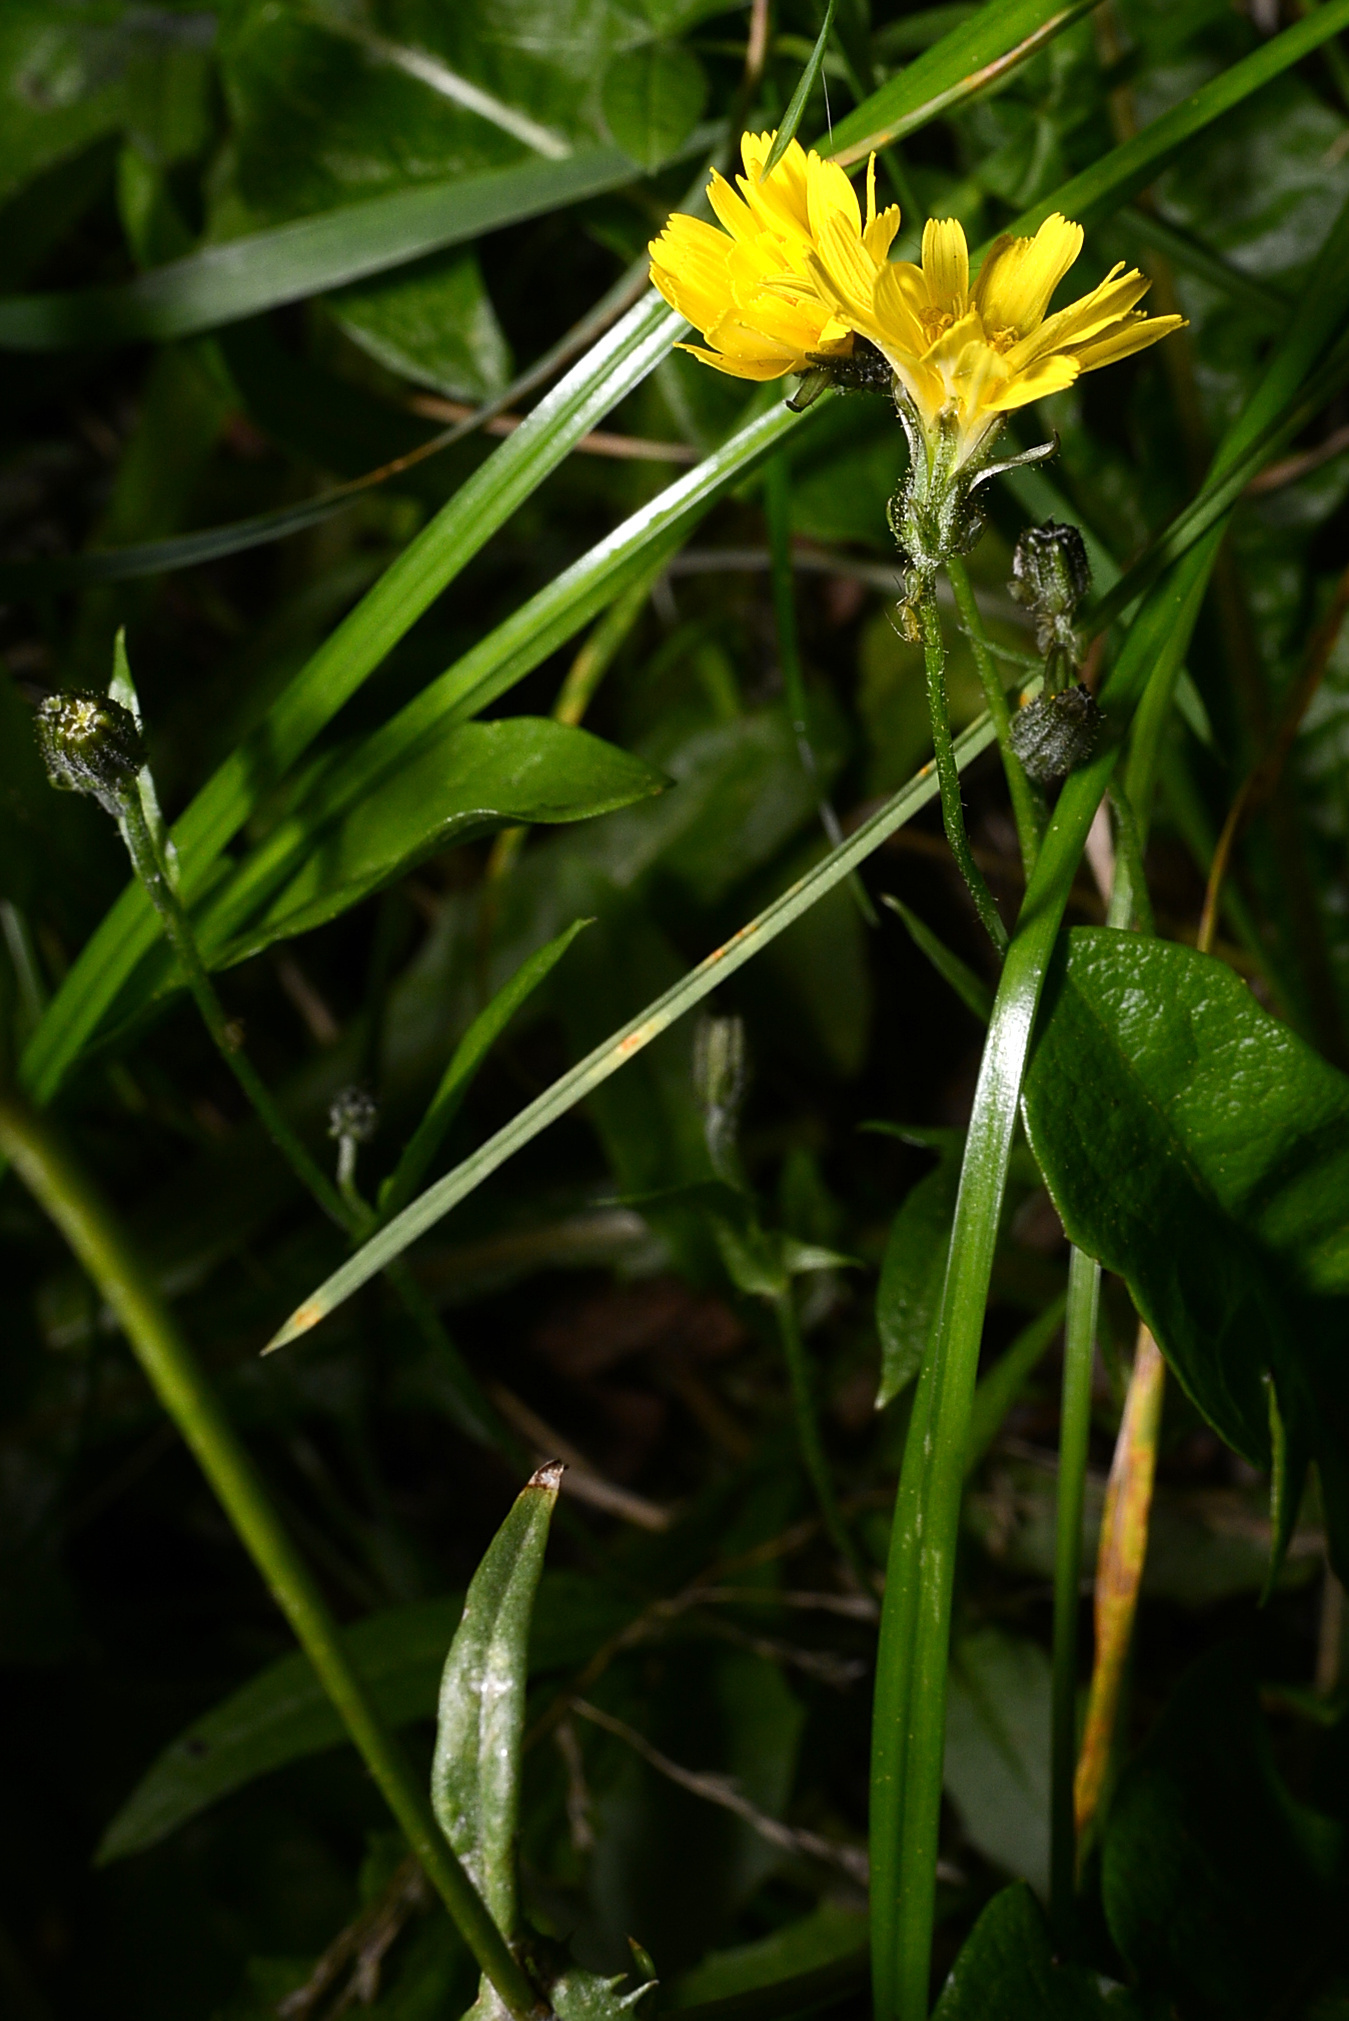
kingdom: Plantae
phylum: Tracheophyta
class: Magnoliopsida
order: Asterales
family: Asteraceae
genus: Crepis
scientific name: Crepis capillaris
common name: Smooth hawksbeard
